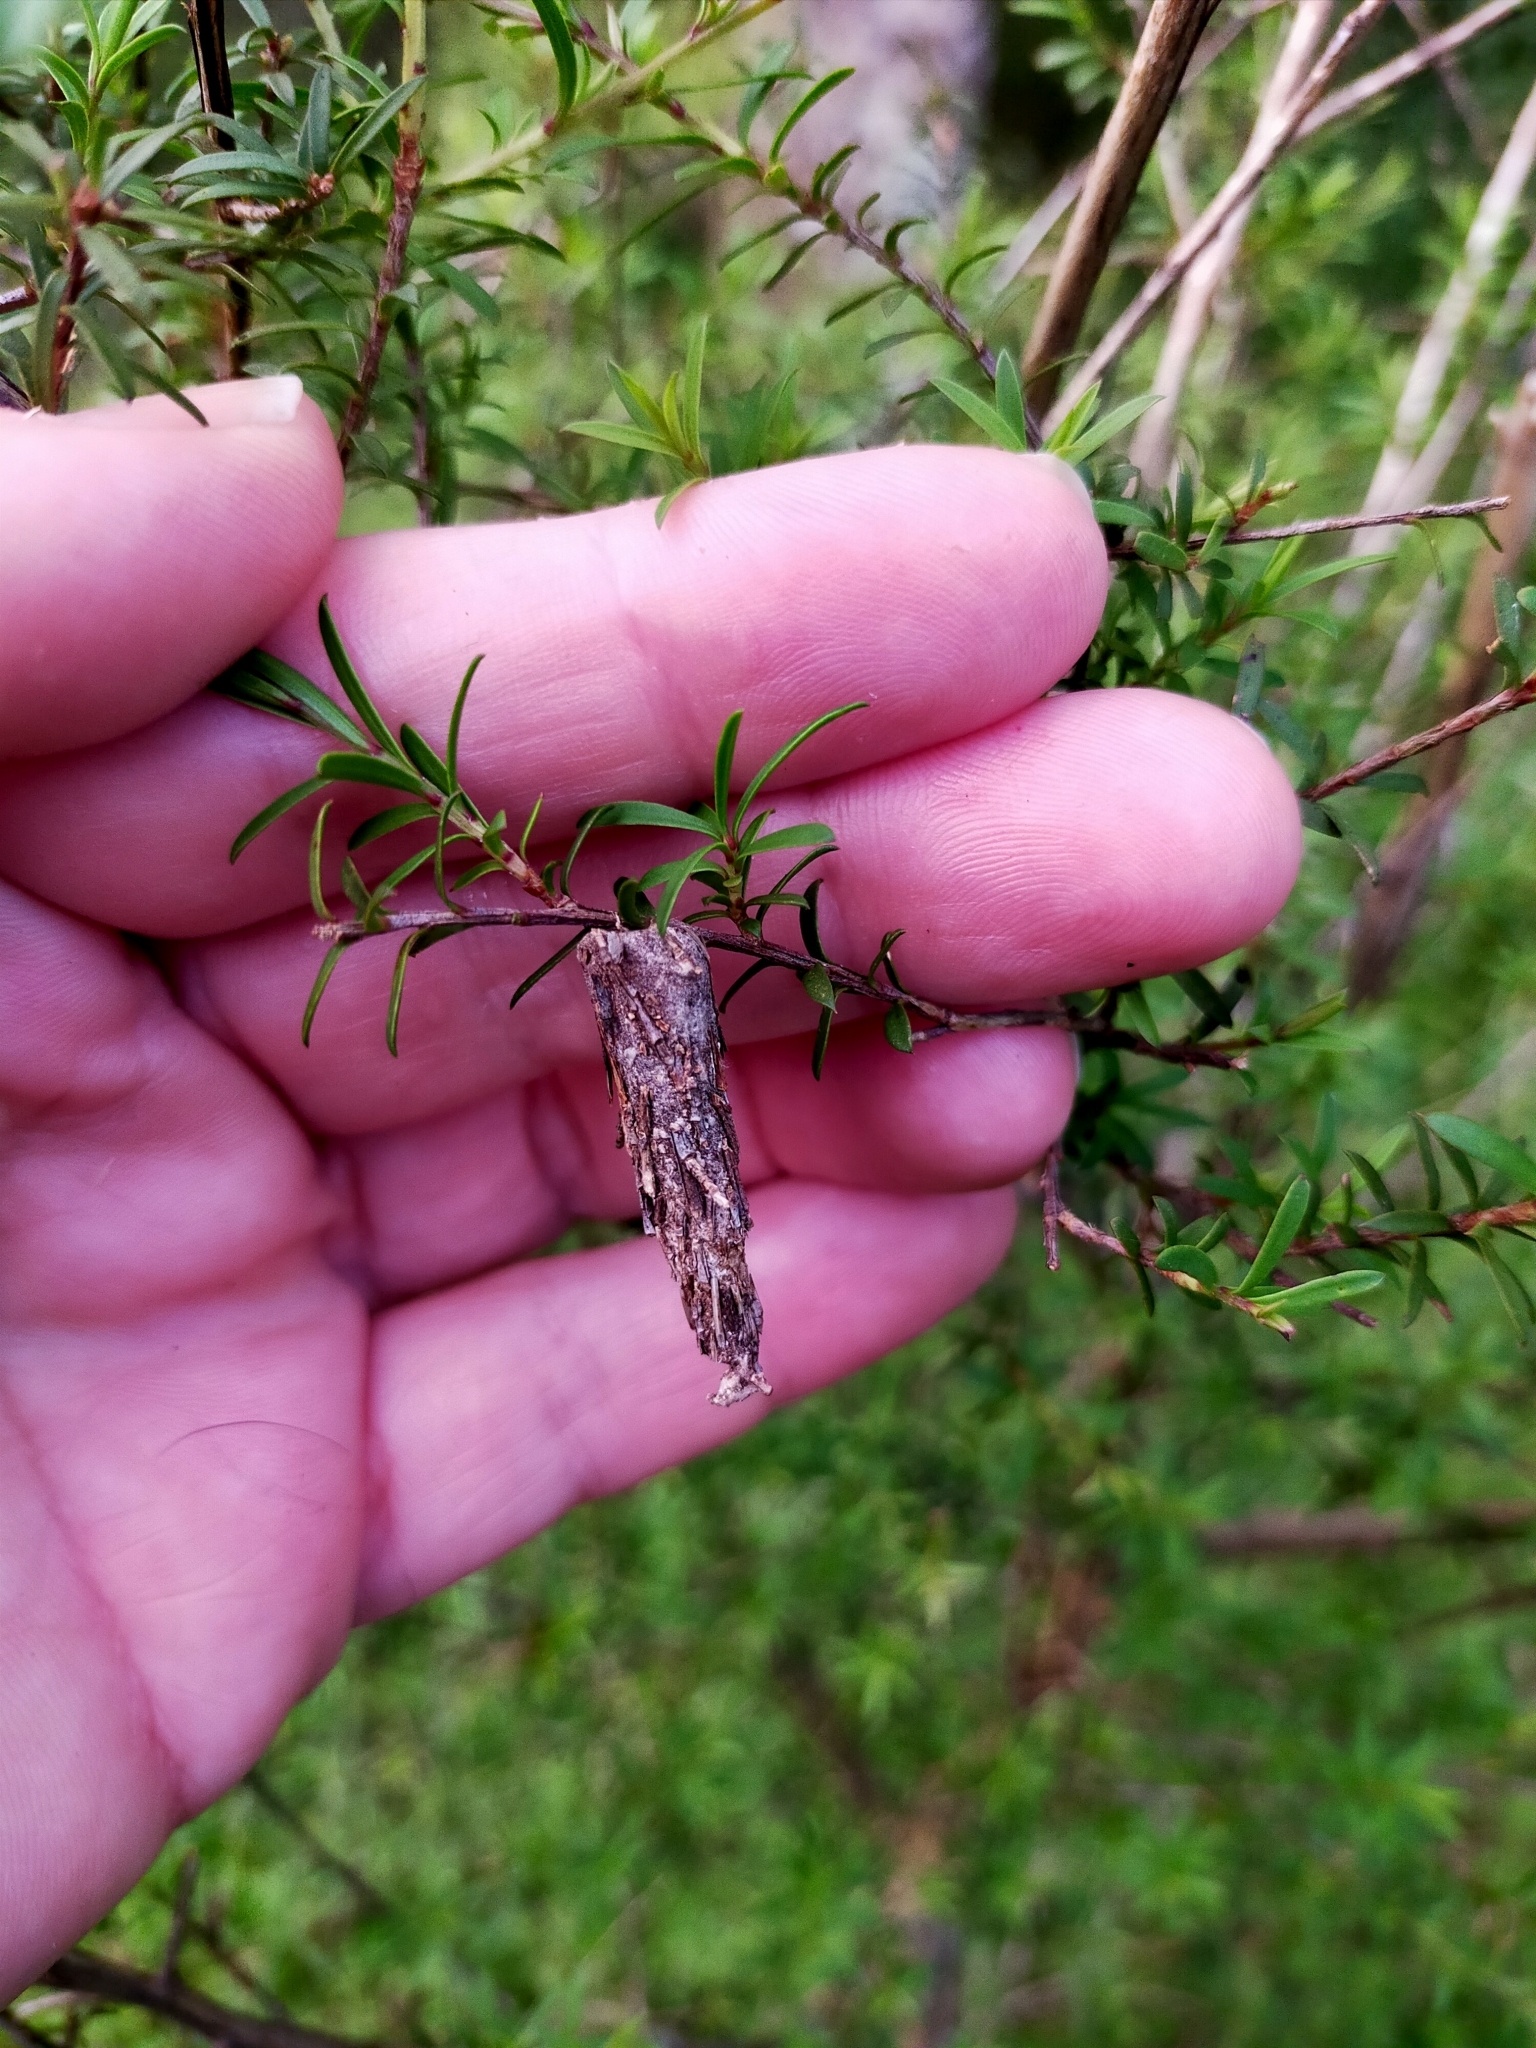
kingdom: Animalia
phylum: Arthropoda
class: Insecta
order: Lepidoptera
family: Psychidae
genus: Liothula
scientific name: Liothula omnivora
